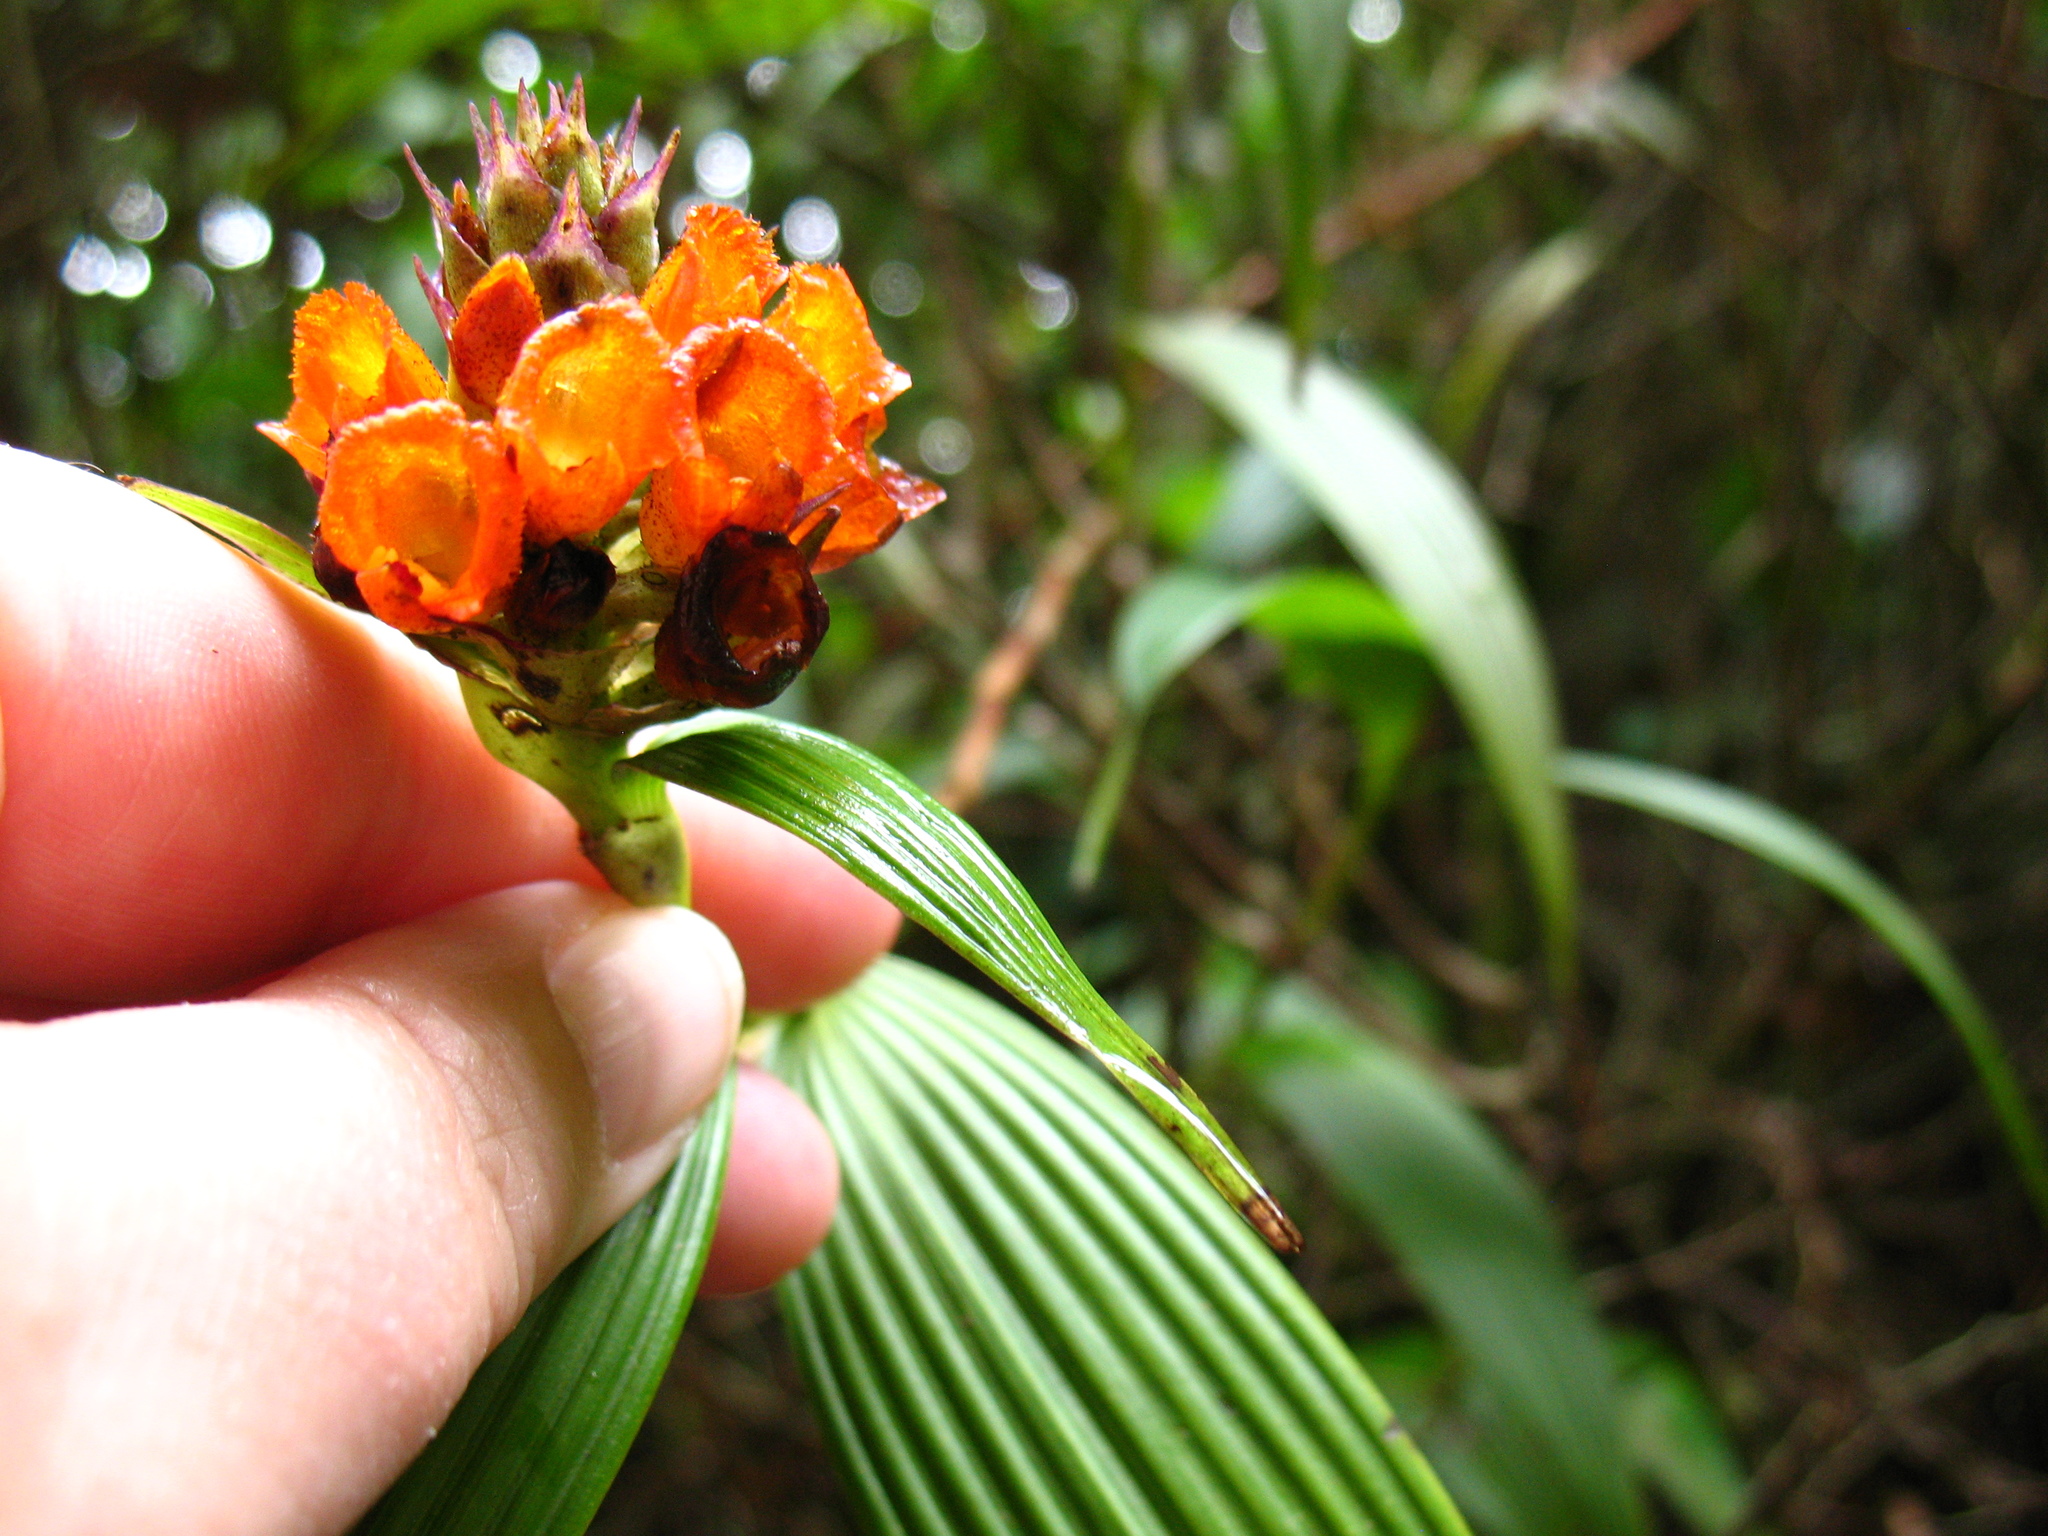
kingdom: Plantae
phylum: Tracheophyta
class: Liliopsida
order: Asparagales
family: Orchidaceae
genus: Elleanthus
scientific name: Elleanthus aurantiacus
